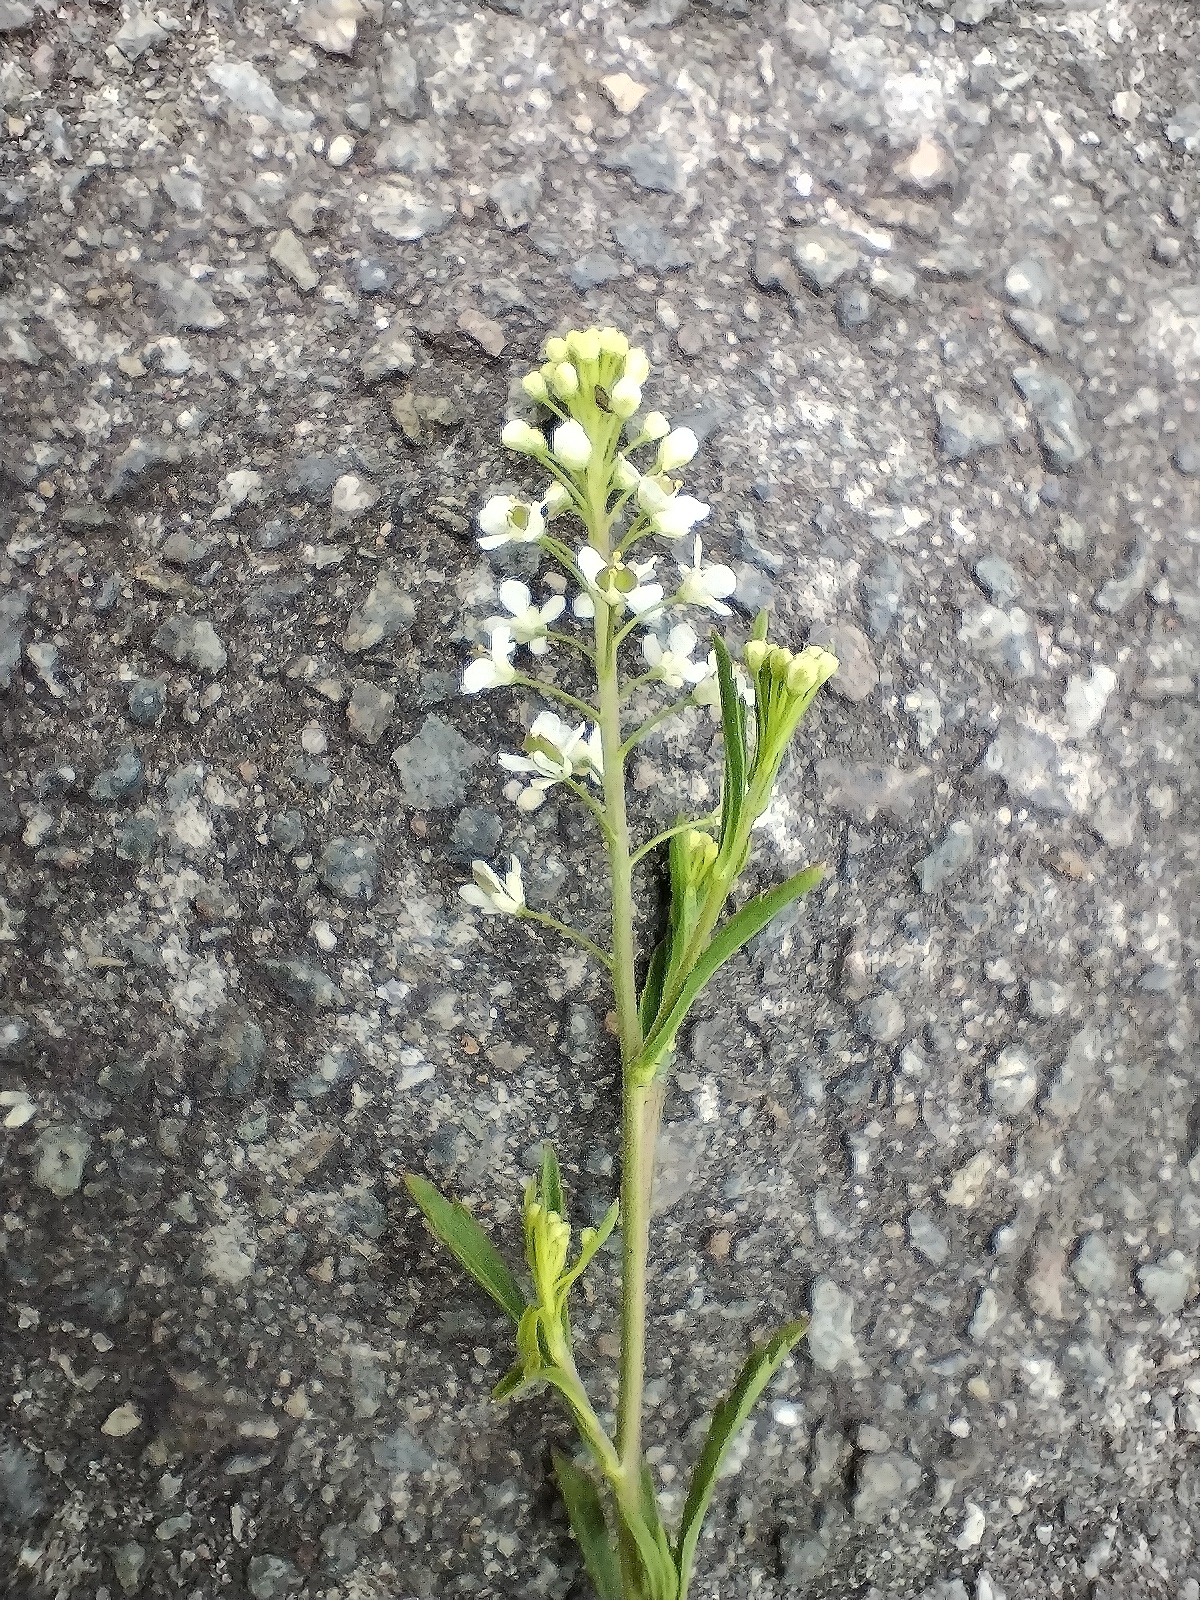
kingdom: Plantae
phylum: Tracheophyta
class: Magnoliopsida
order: Brassicales
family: Brassicaceae
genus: Lepidium
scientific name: Lepidium virginicum
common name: Least pepperwort
